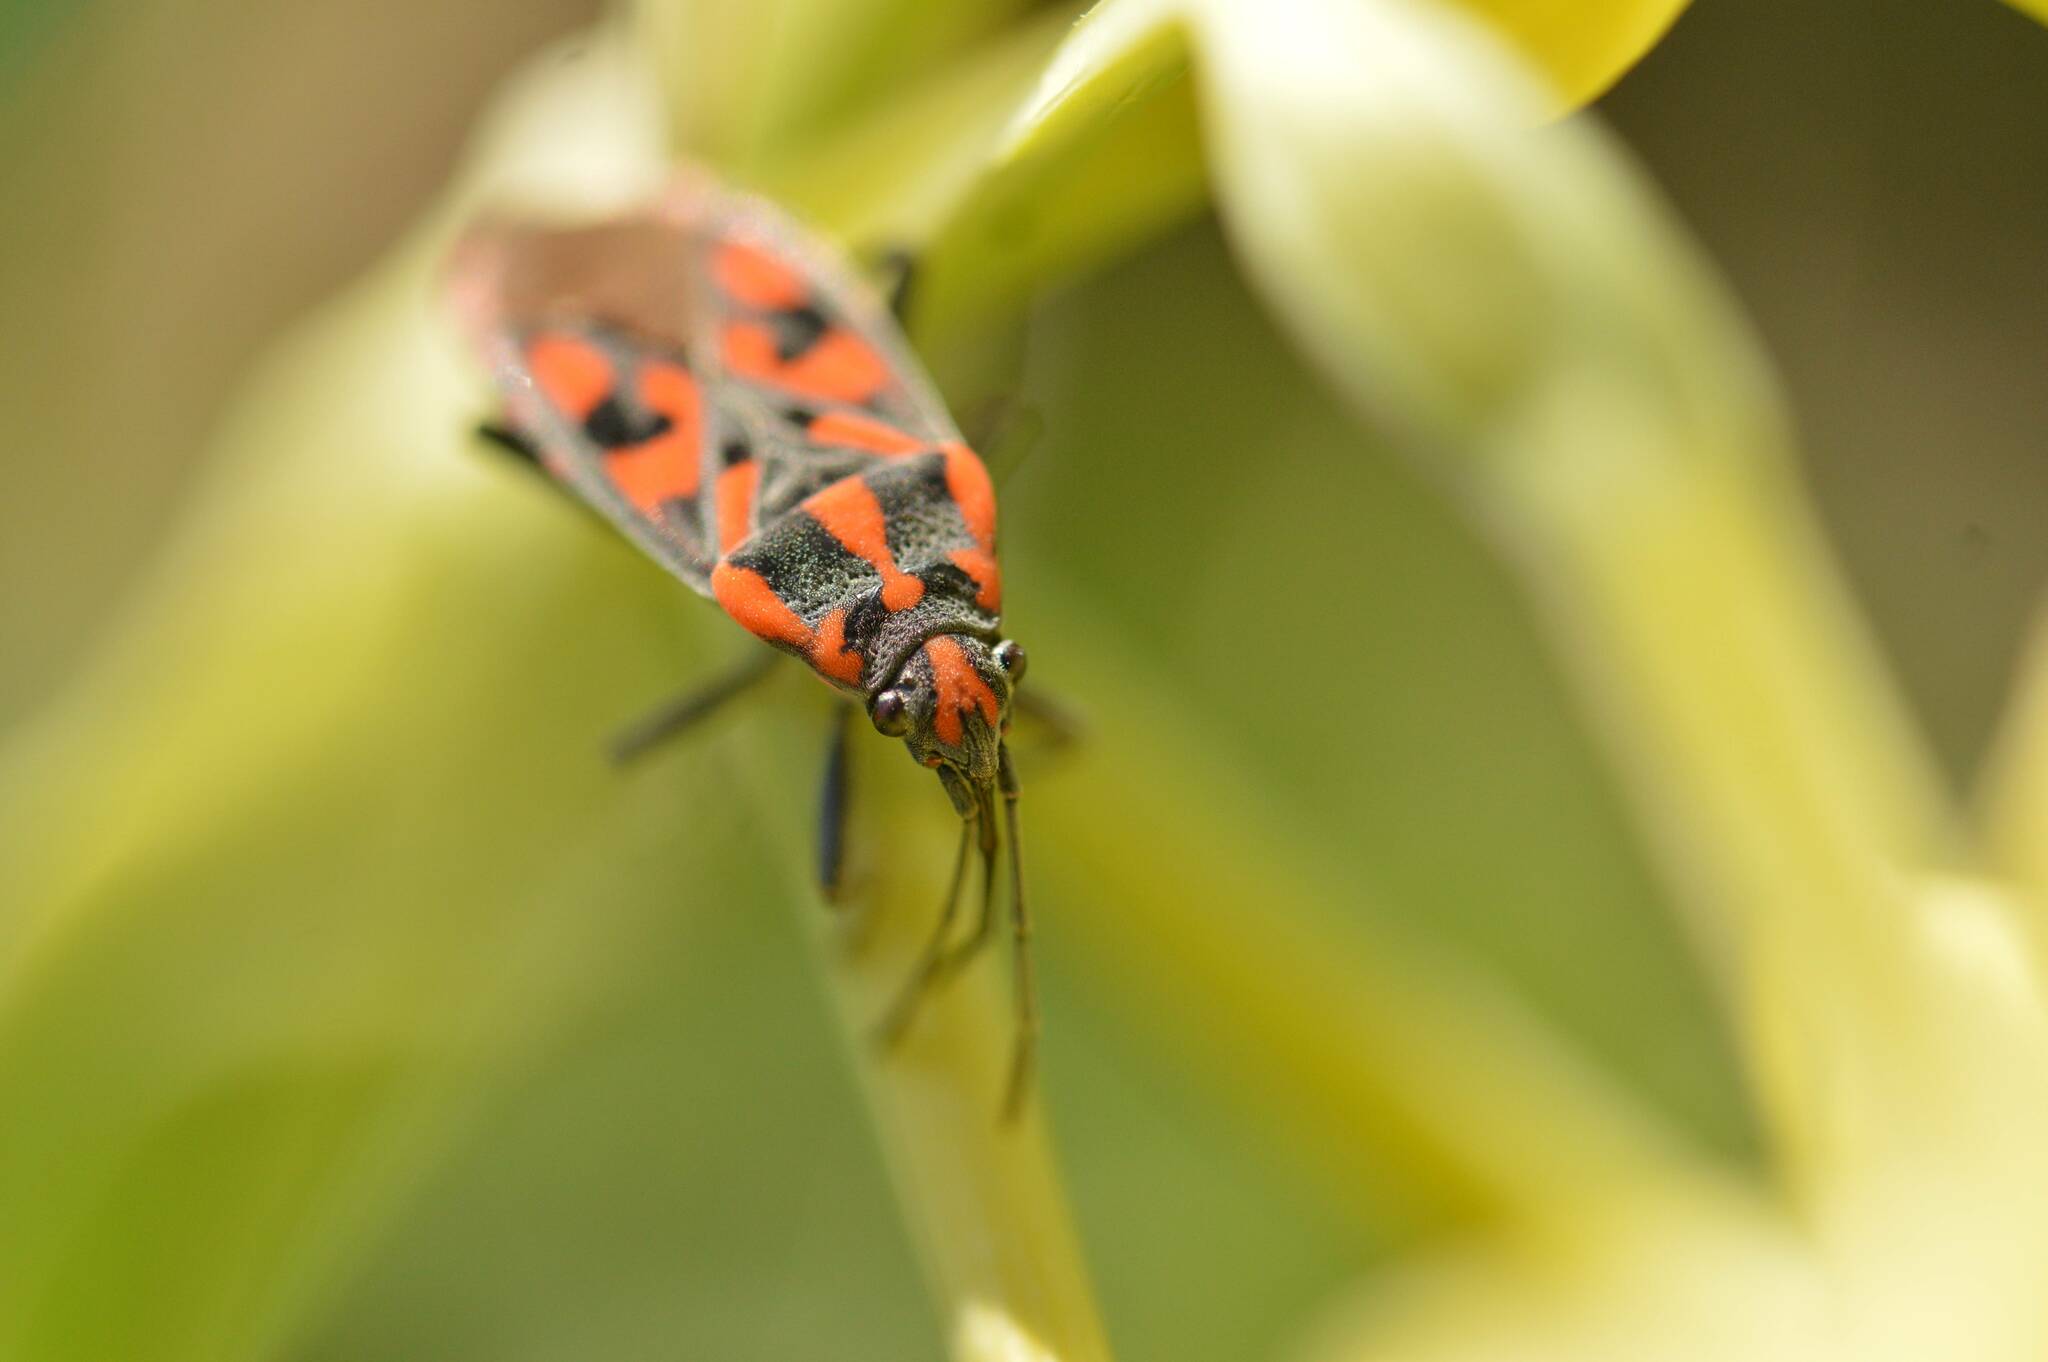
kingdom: Animalia
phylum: Arthropoda
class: Insecta
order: Hemiptera
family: Lygaeidae
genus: Spilostethus
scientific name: Spilostethus saxatilis
